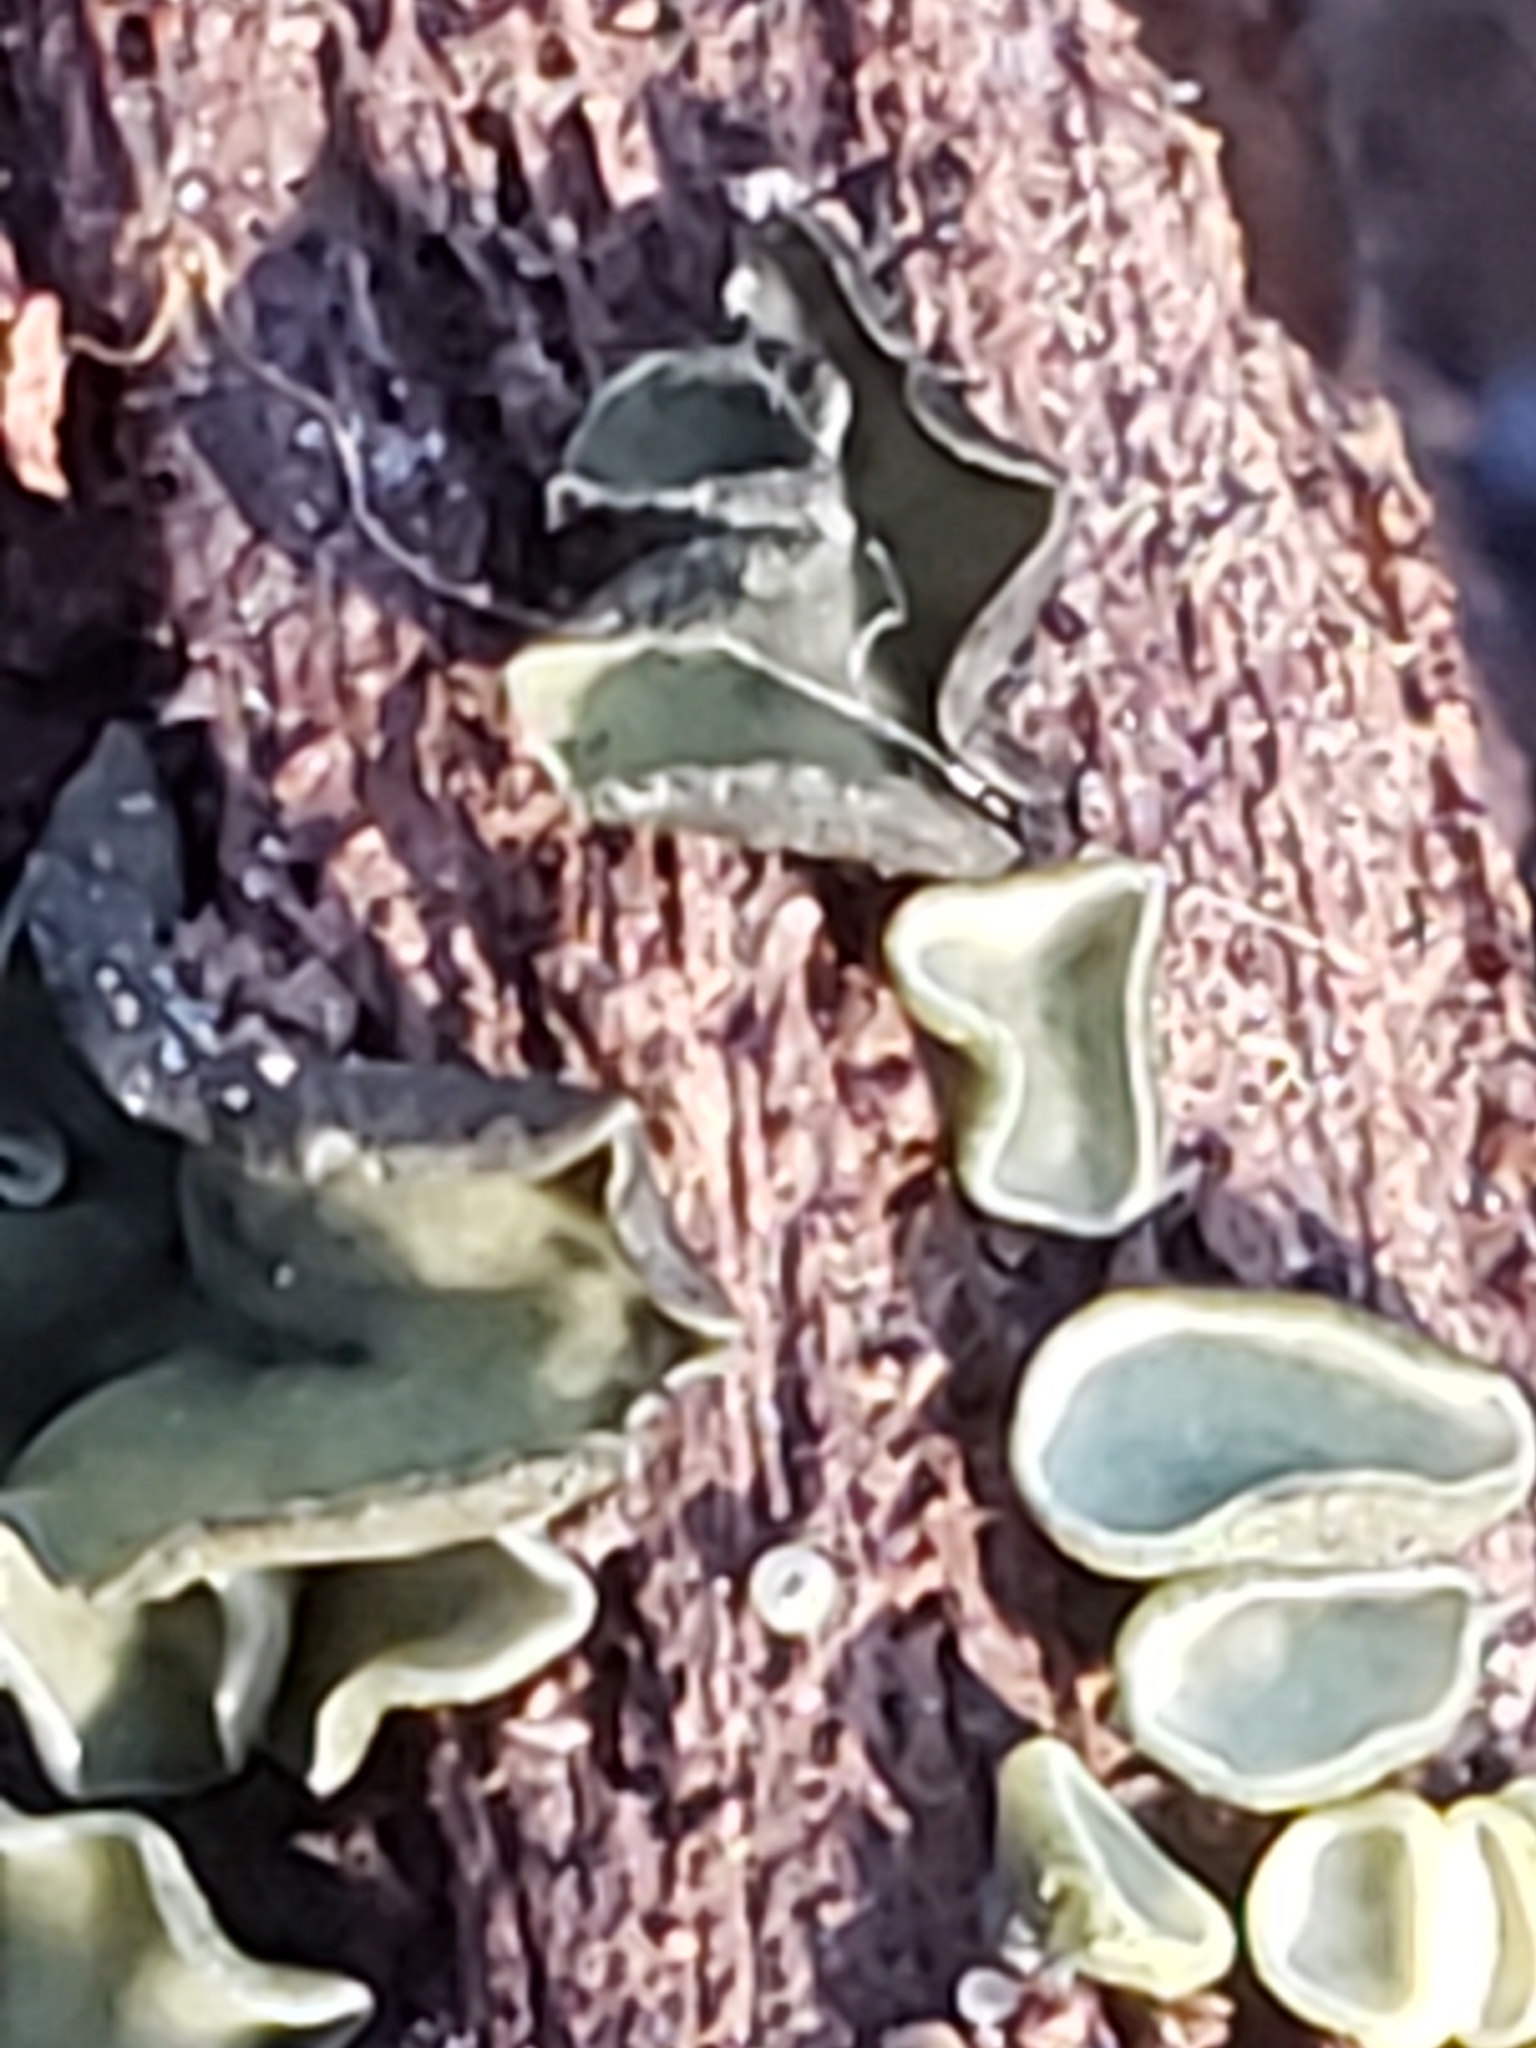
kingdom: Fungi
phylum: Ascomycota
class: Leotiomycetes
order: Helotiales
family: Chlorospleniaceae
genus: Chlorosplenium
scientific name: Chlorosplenium chlora
